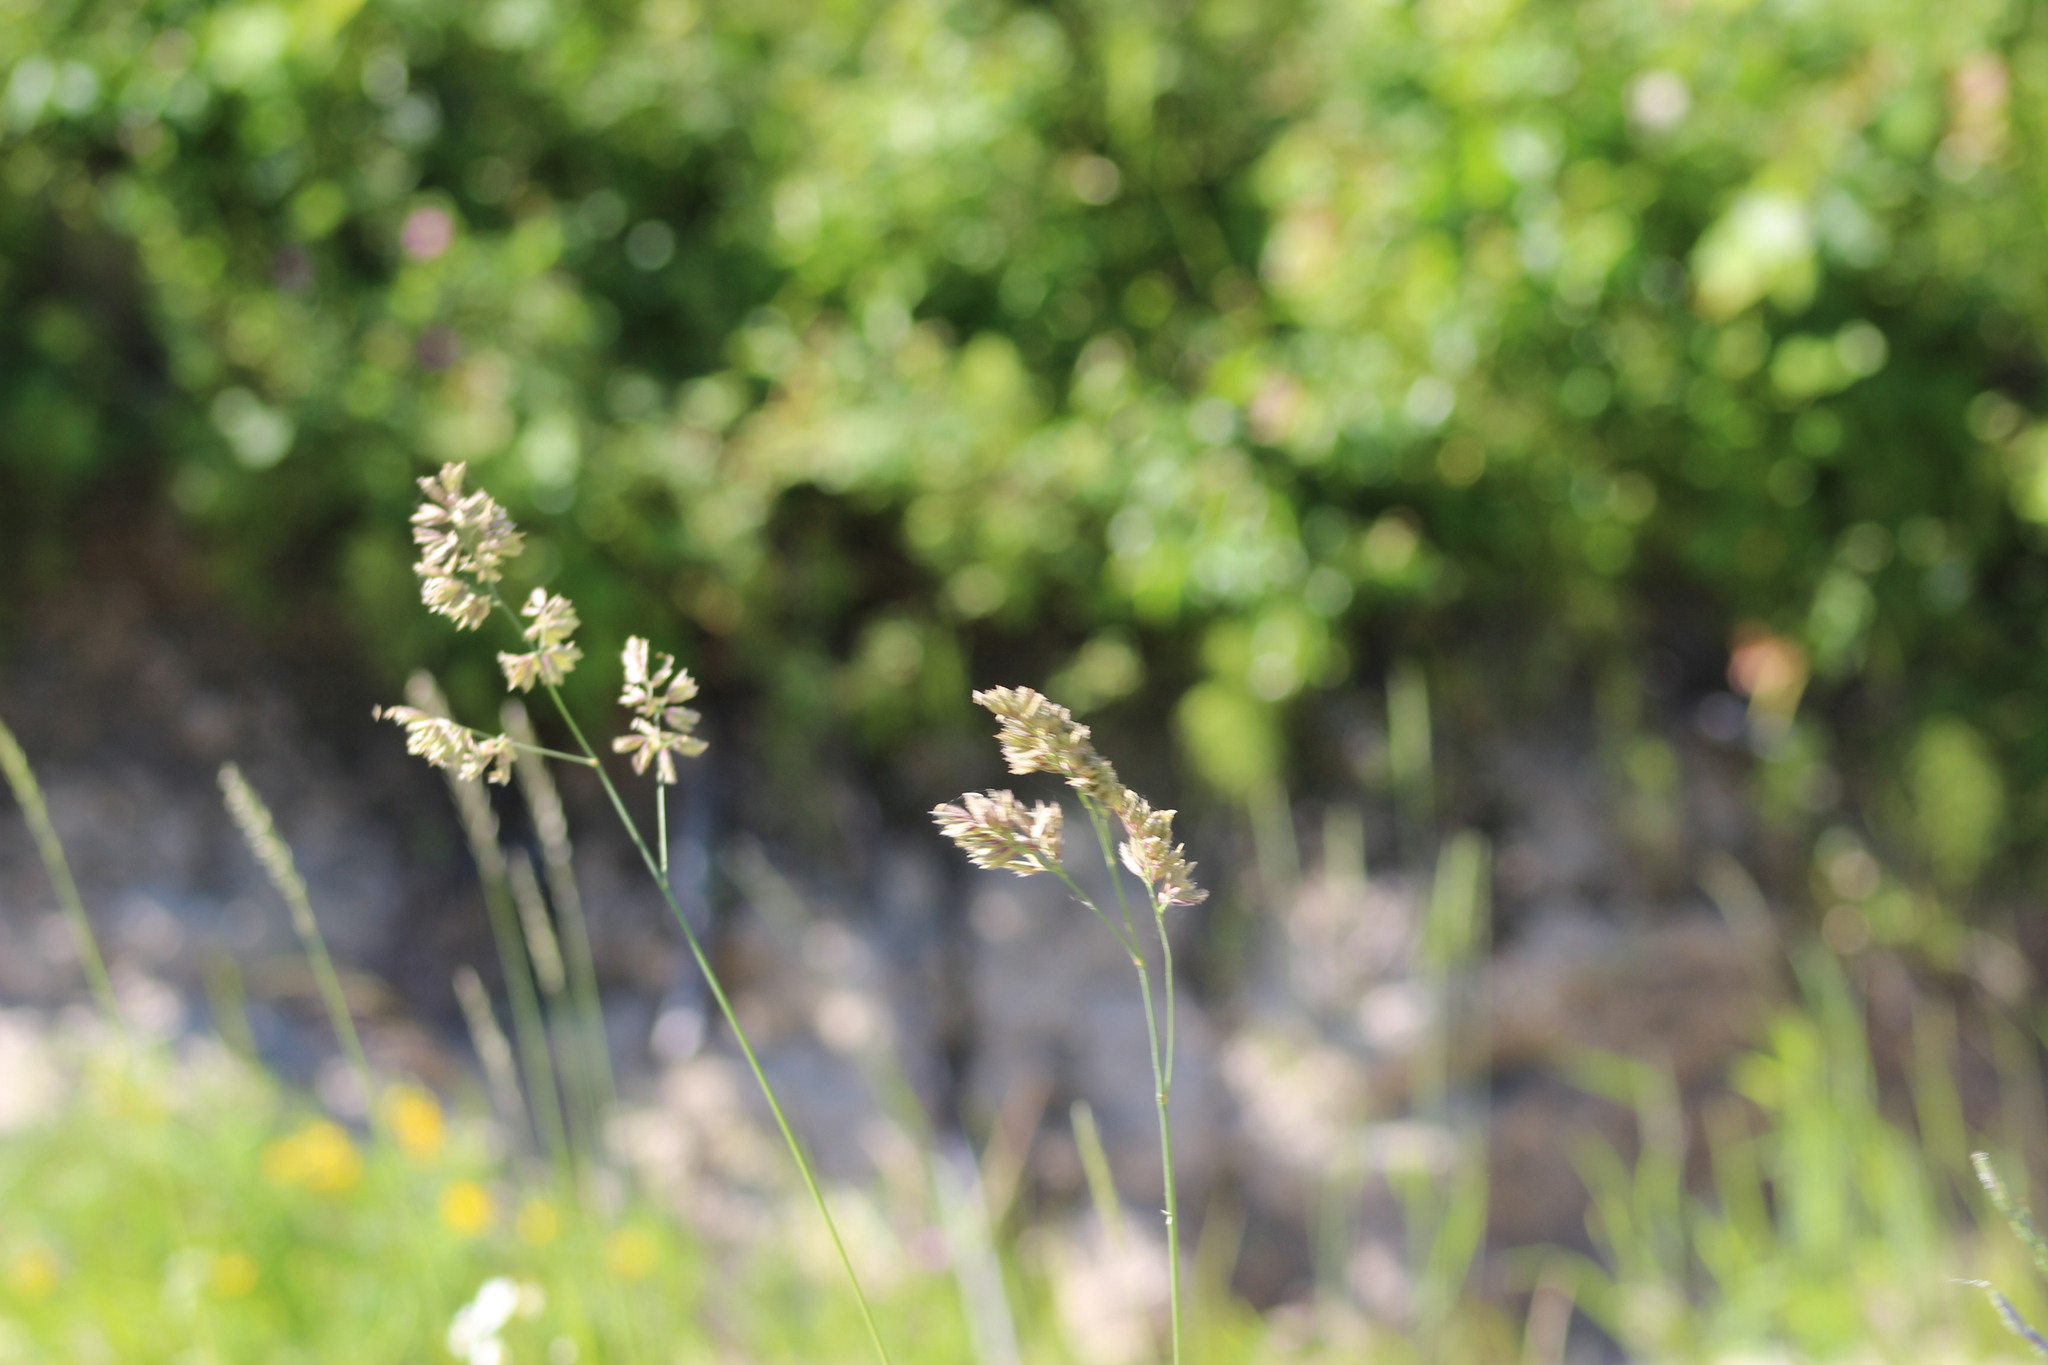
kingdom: Plantae
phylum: Tracheophyta
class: Liliopsida
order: Poales
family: Poaceae
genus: Dactylis
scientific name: Dactylis glomerata
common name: Orchardgrass
